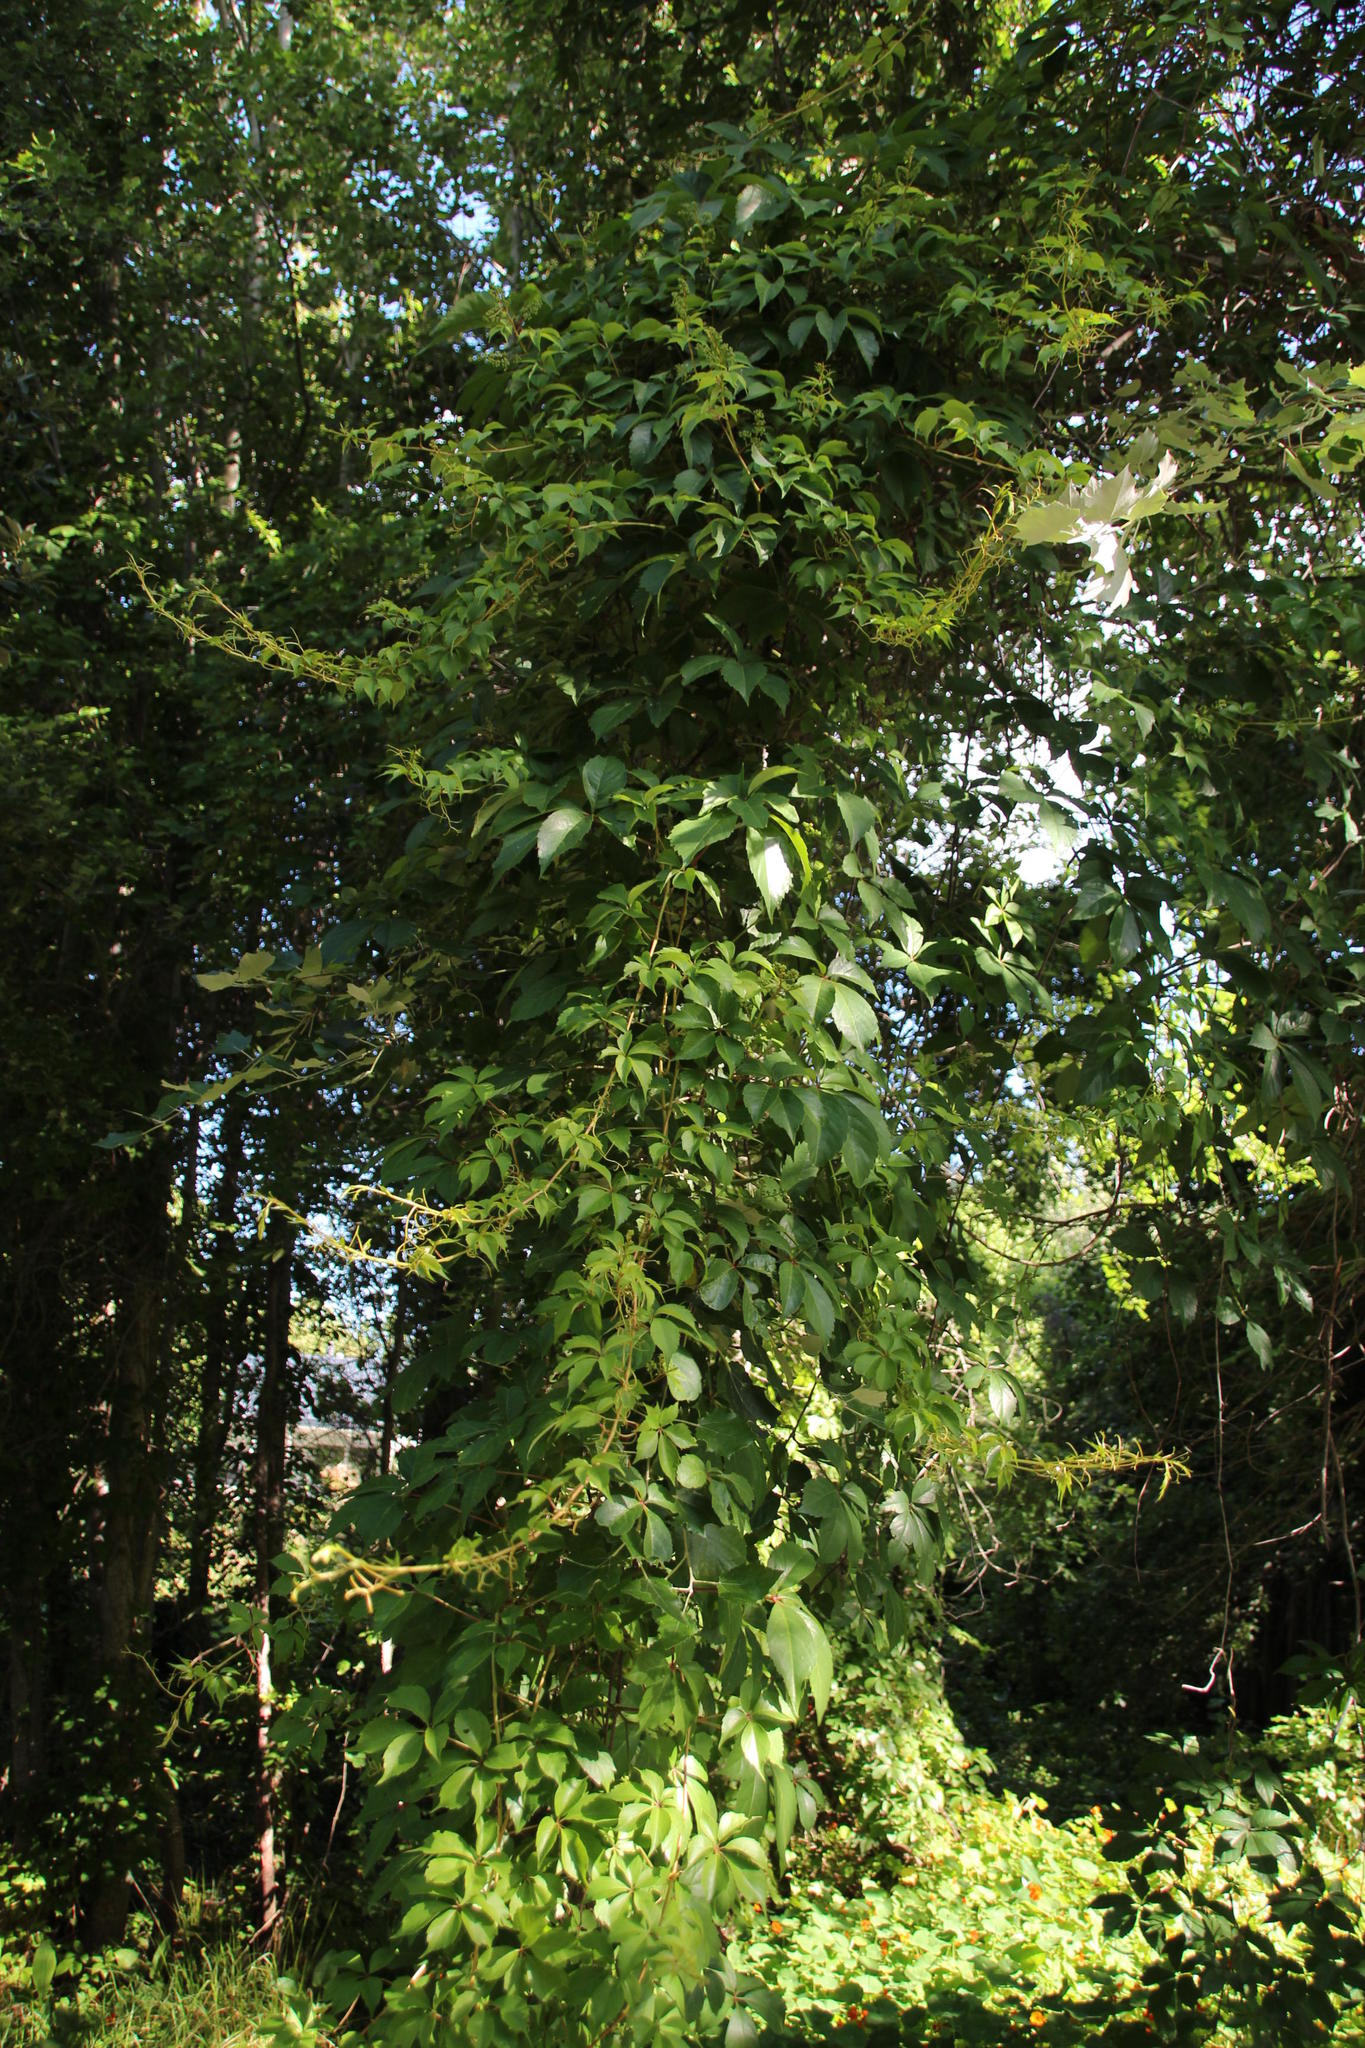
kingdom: Plantae
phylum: Tracheophyta
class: Magnoliopsida
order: Vitales
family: Vitaceae
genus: Parthenocissus
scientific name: Parthenocissus quinquefolia
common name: Virginia-creeper
